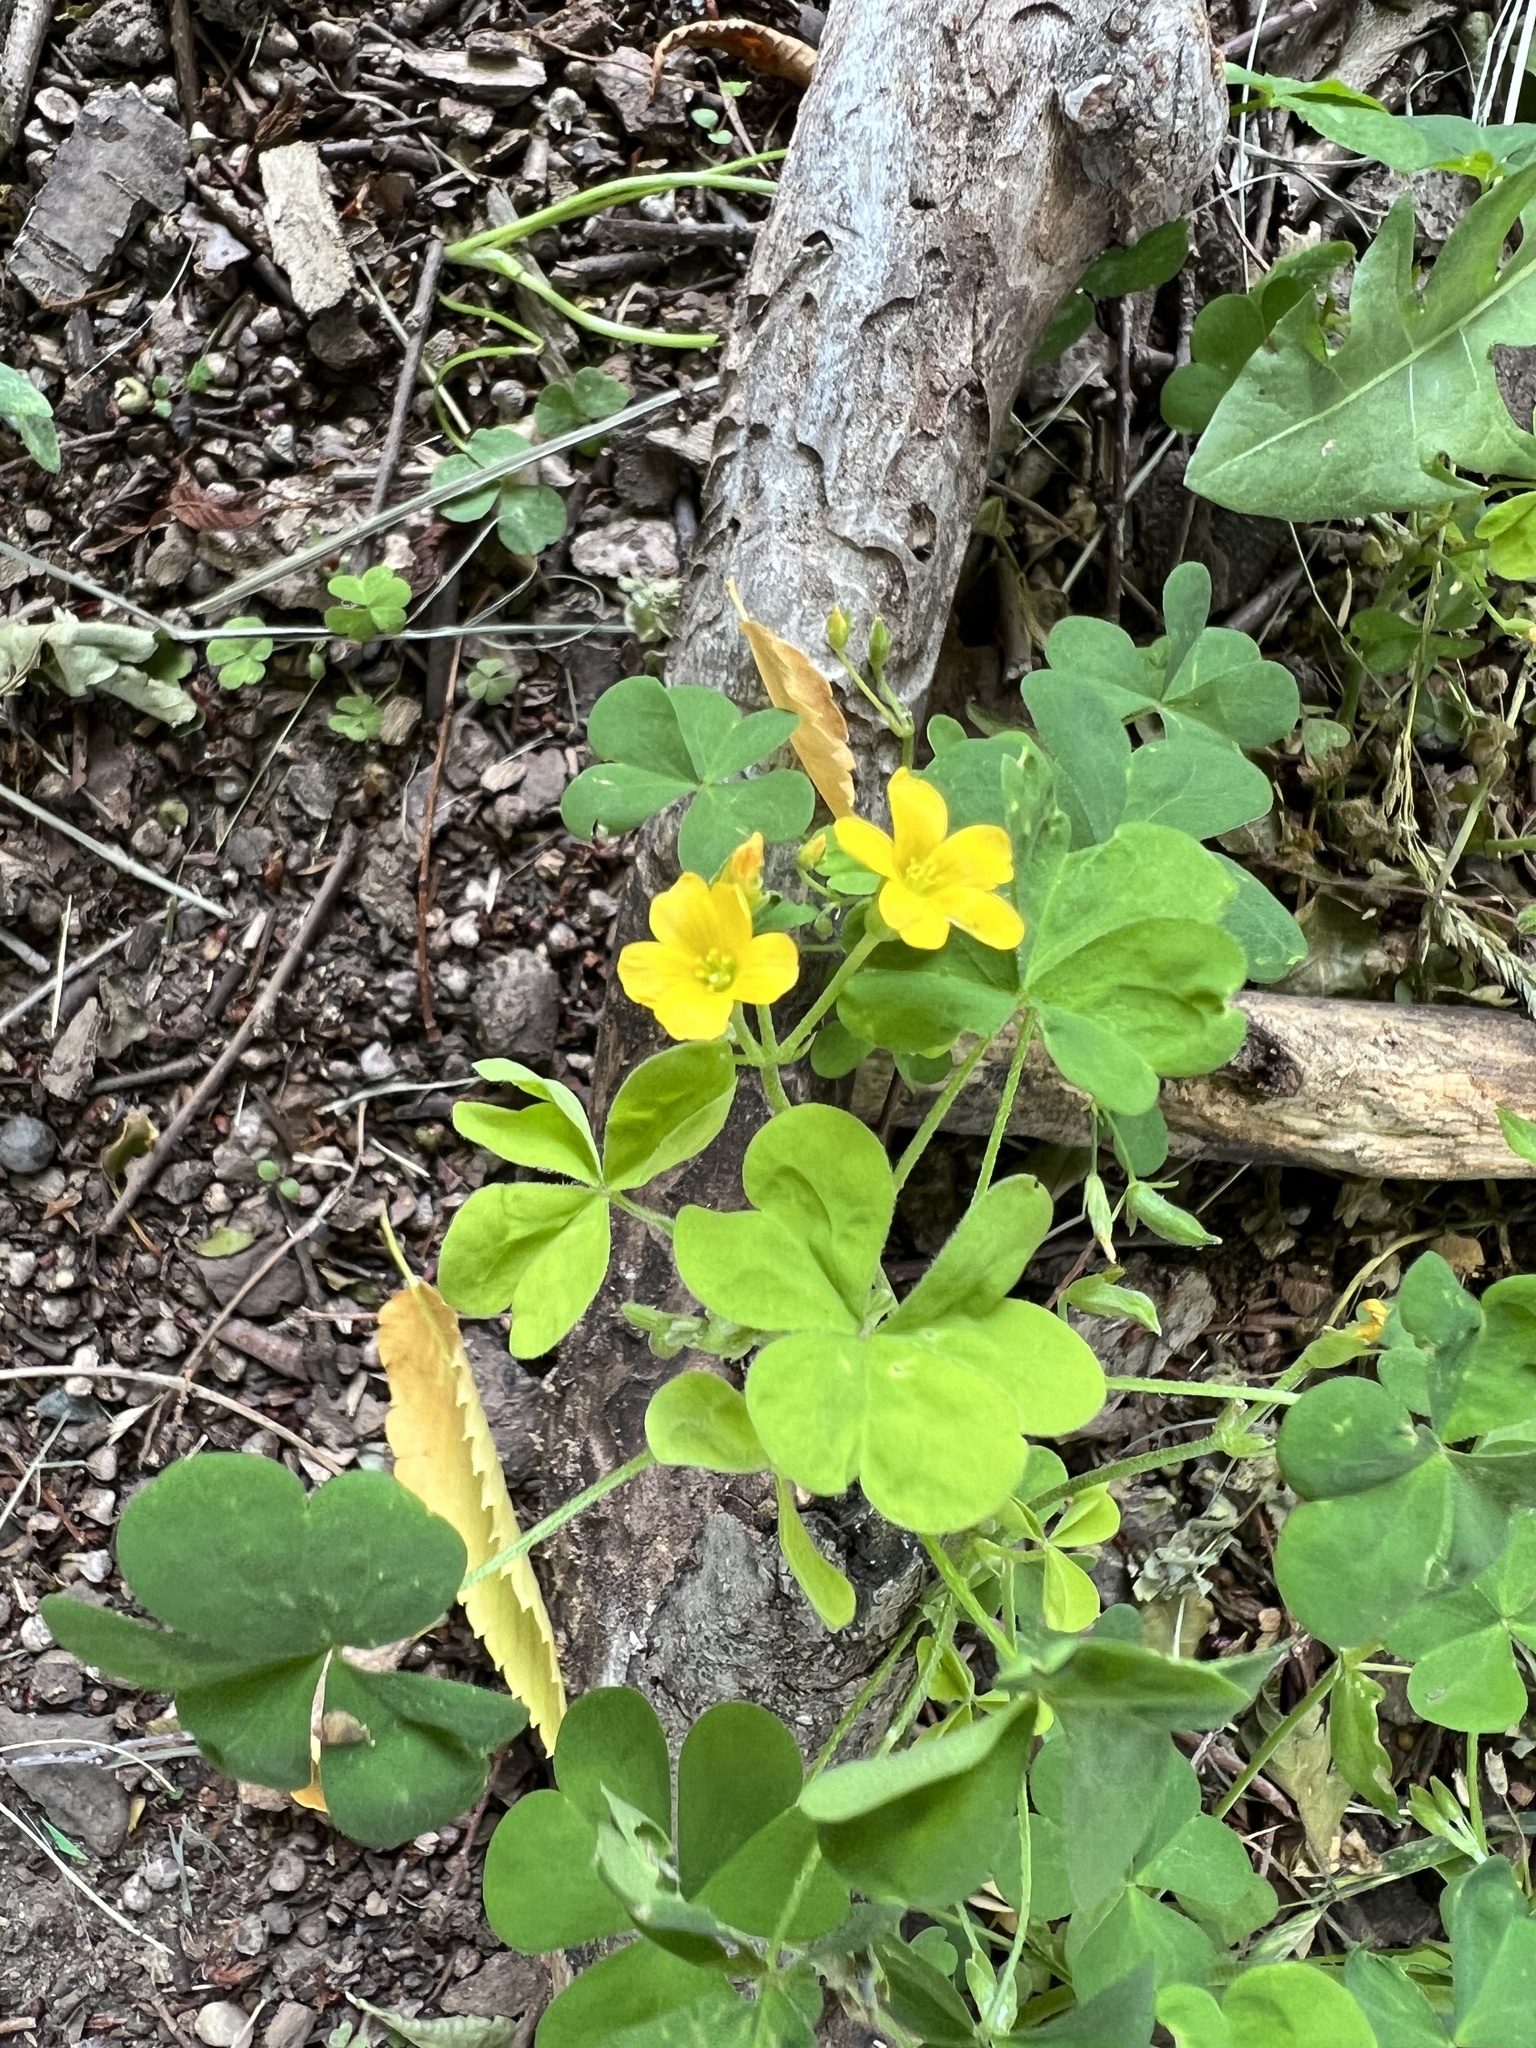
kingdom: Plantae
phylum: Tracheophyta
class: Magnoliopsida
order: Oxalidales
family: Oxalidaceae
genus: Oxalis
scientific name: Oxalis dillenii
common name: Sussex yellow-sorrel
